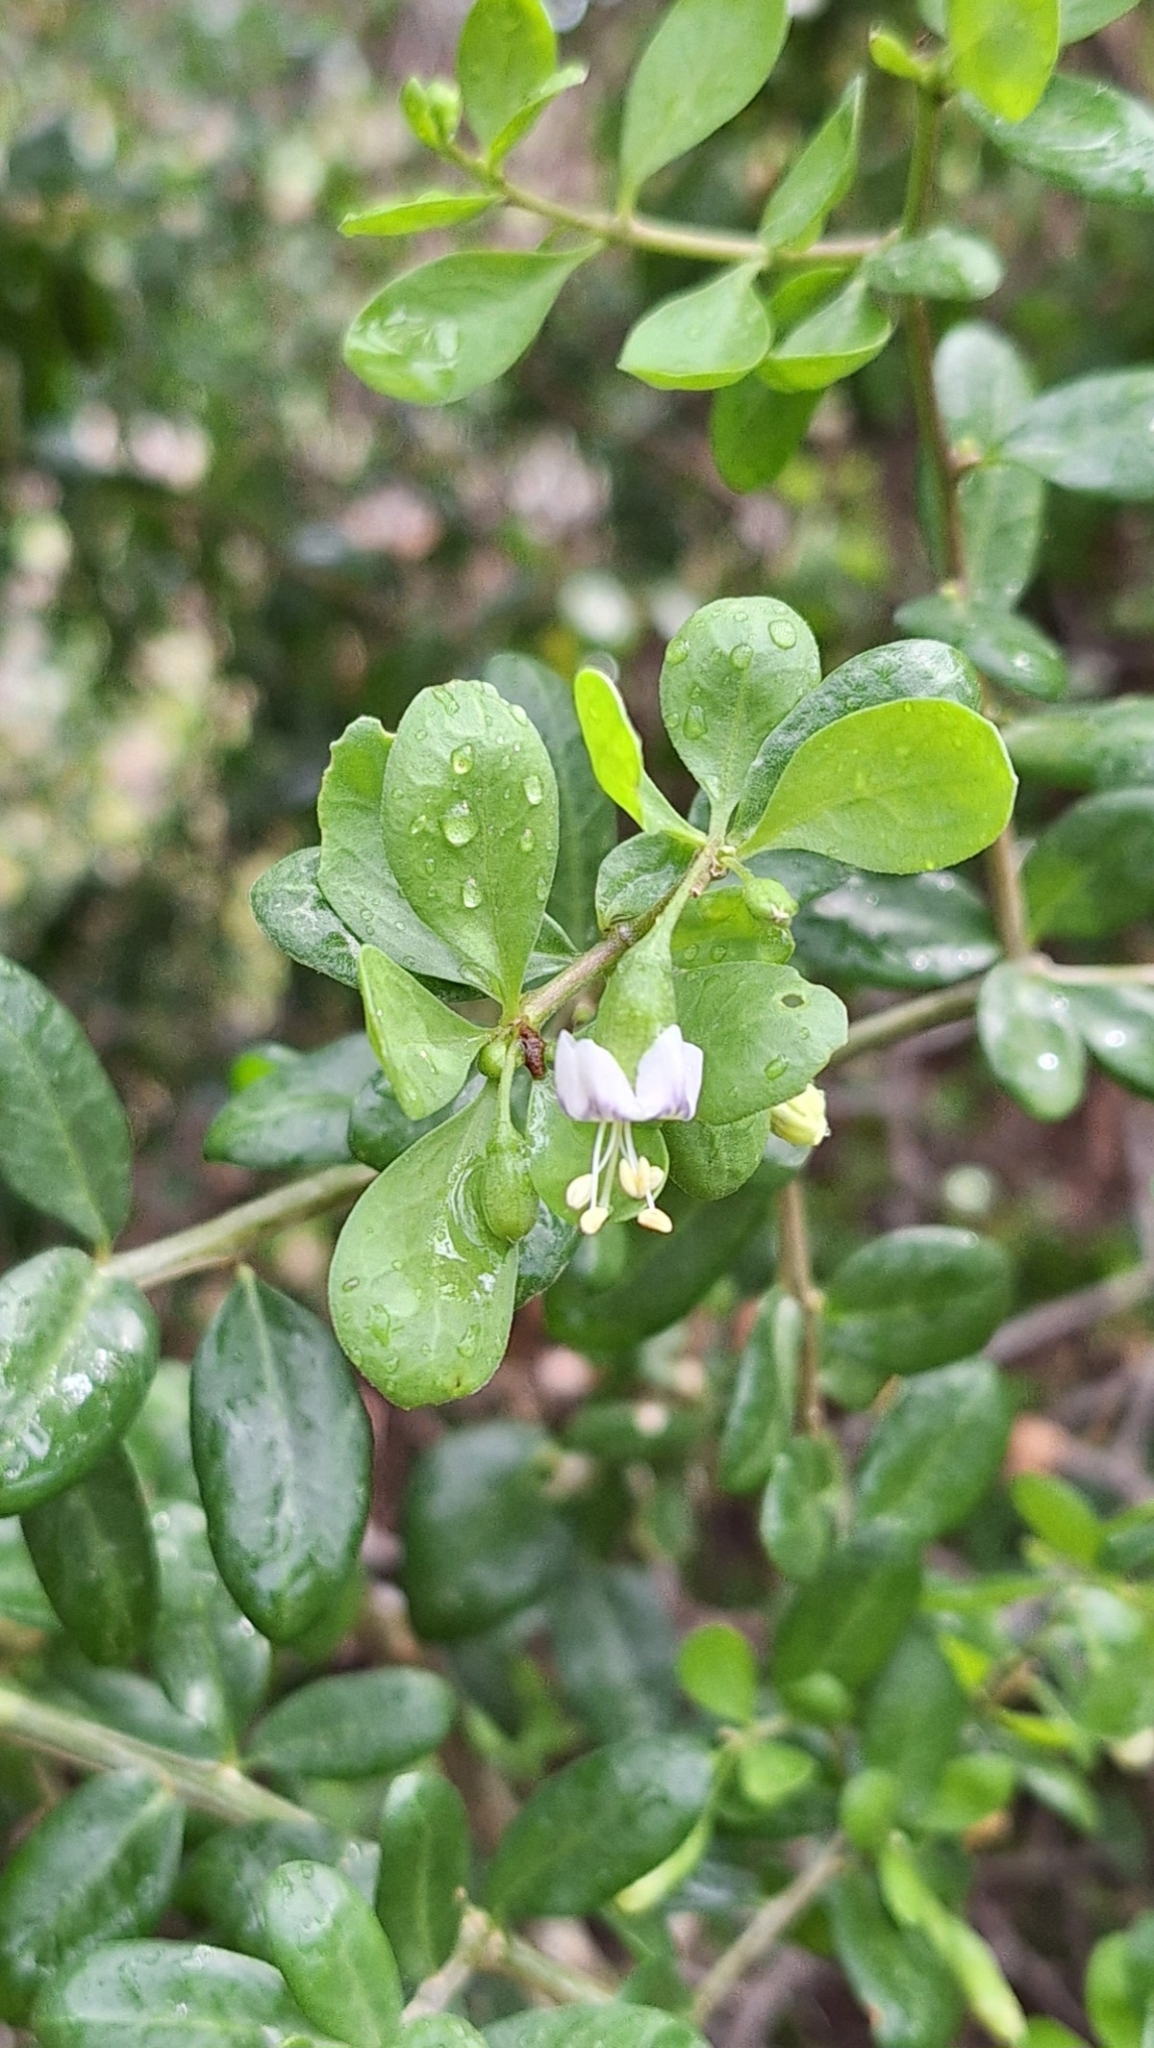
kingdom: Plantae
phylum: Tracheophyta
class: Magnoliopsida
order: Solanales
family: Solanaceae
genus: Lycium
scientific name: Lycium ferocissimum
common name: African boxthorn
